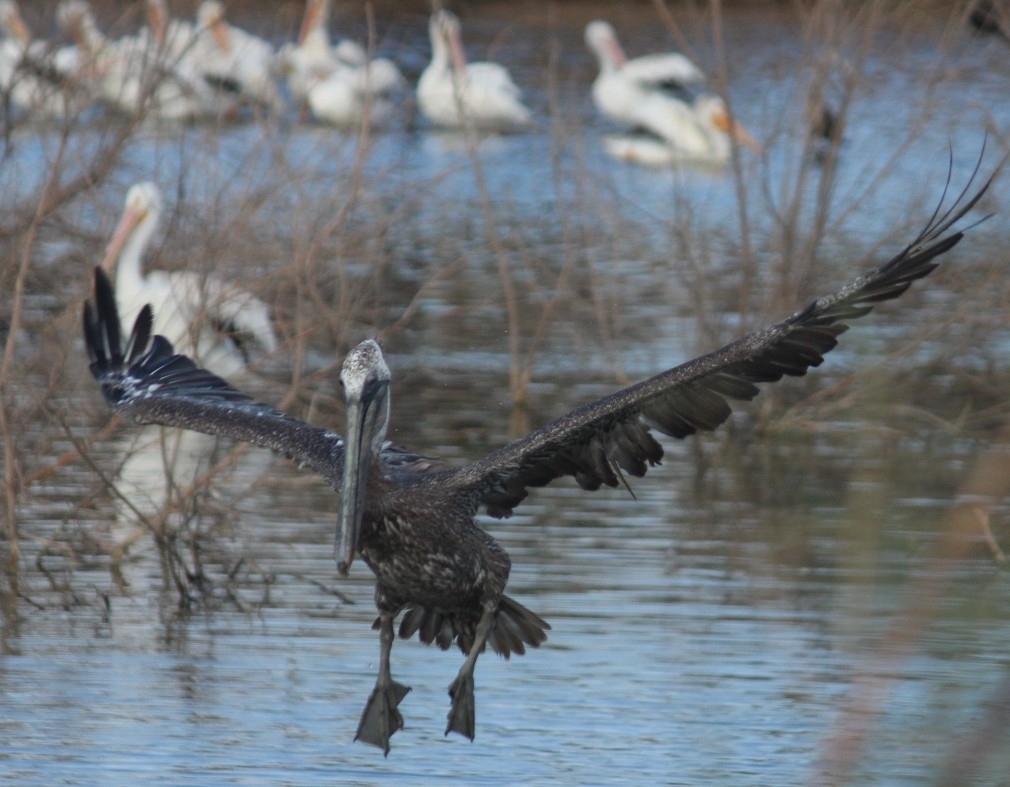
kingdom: Animalia
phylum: Chordata
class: Aves
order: Pelecaniformes
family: Pelecanidae
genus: Pelecanus
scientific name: Pelecanus occidentalis
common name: Brown pelican
